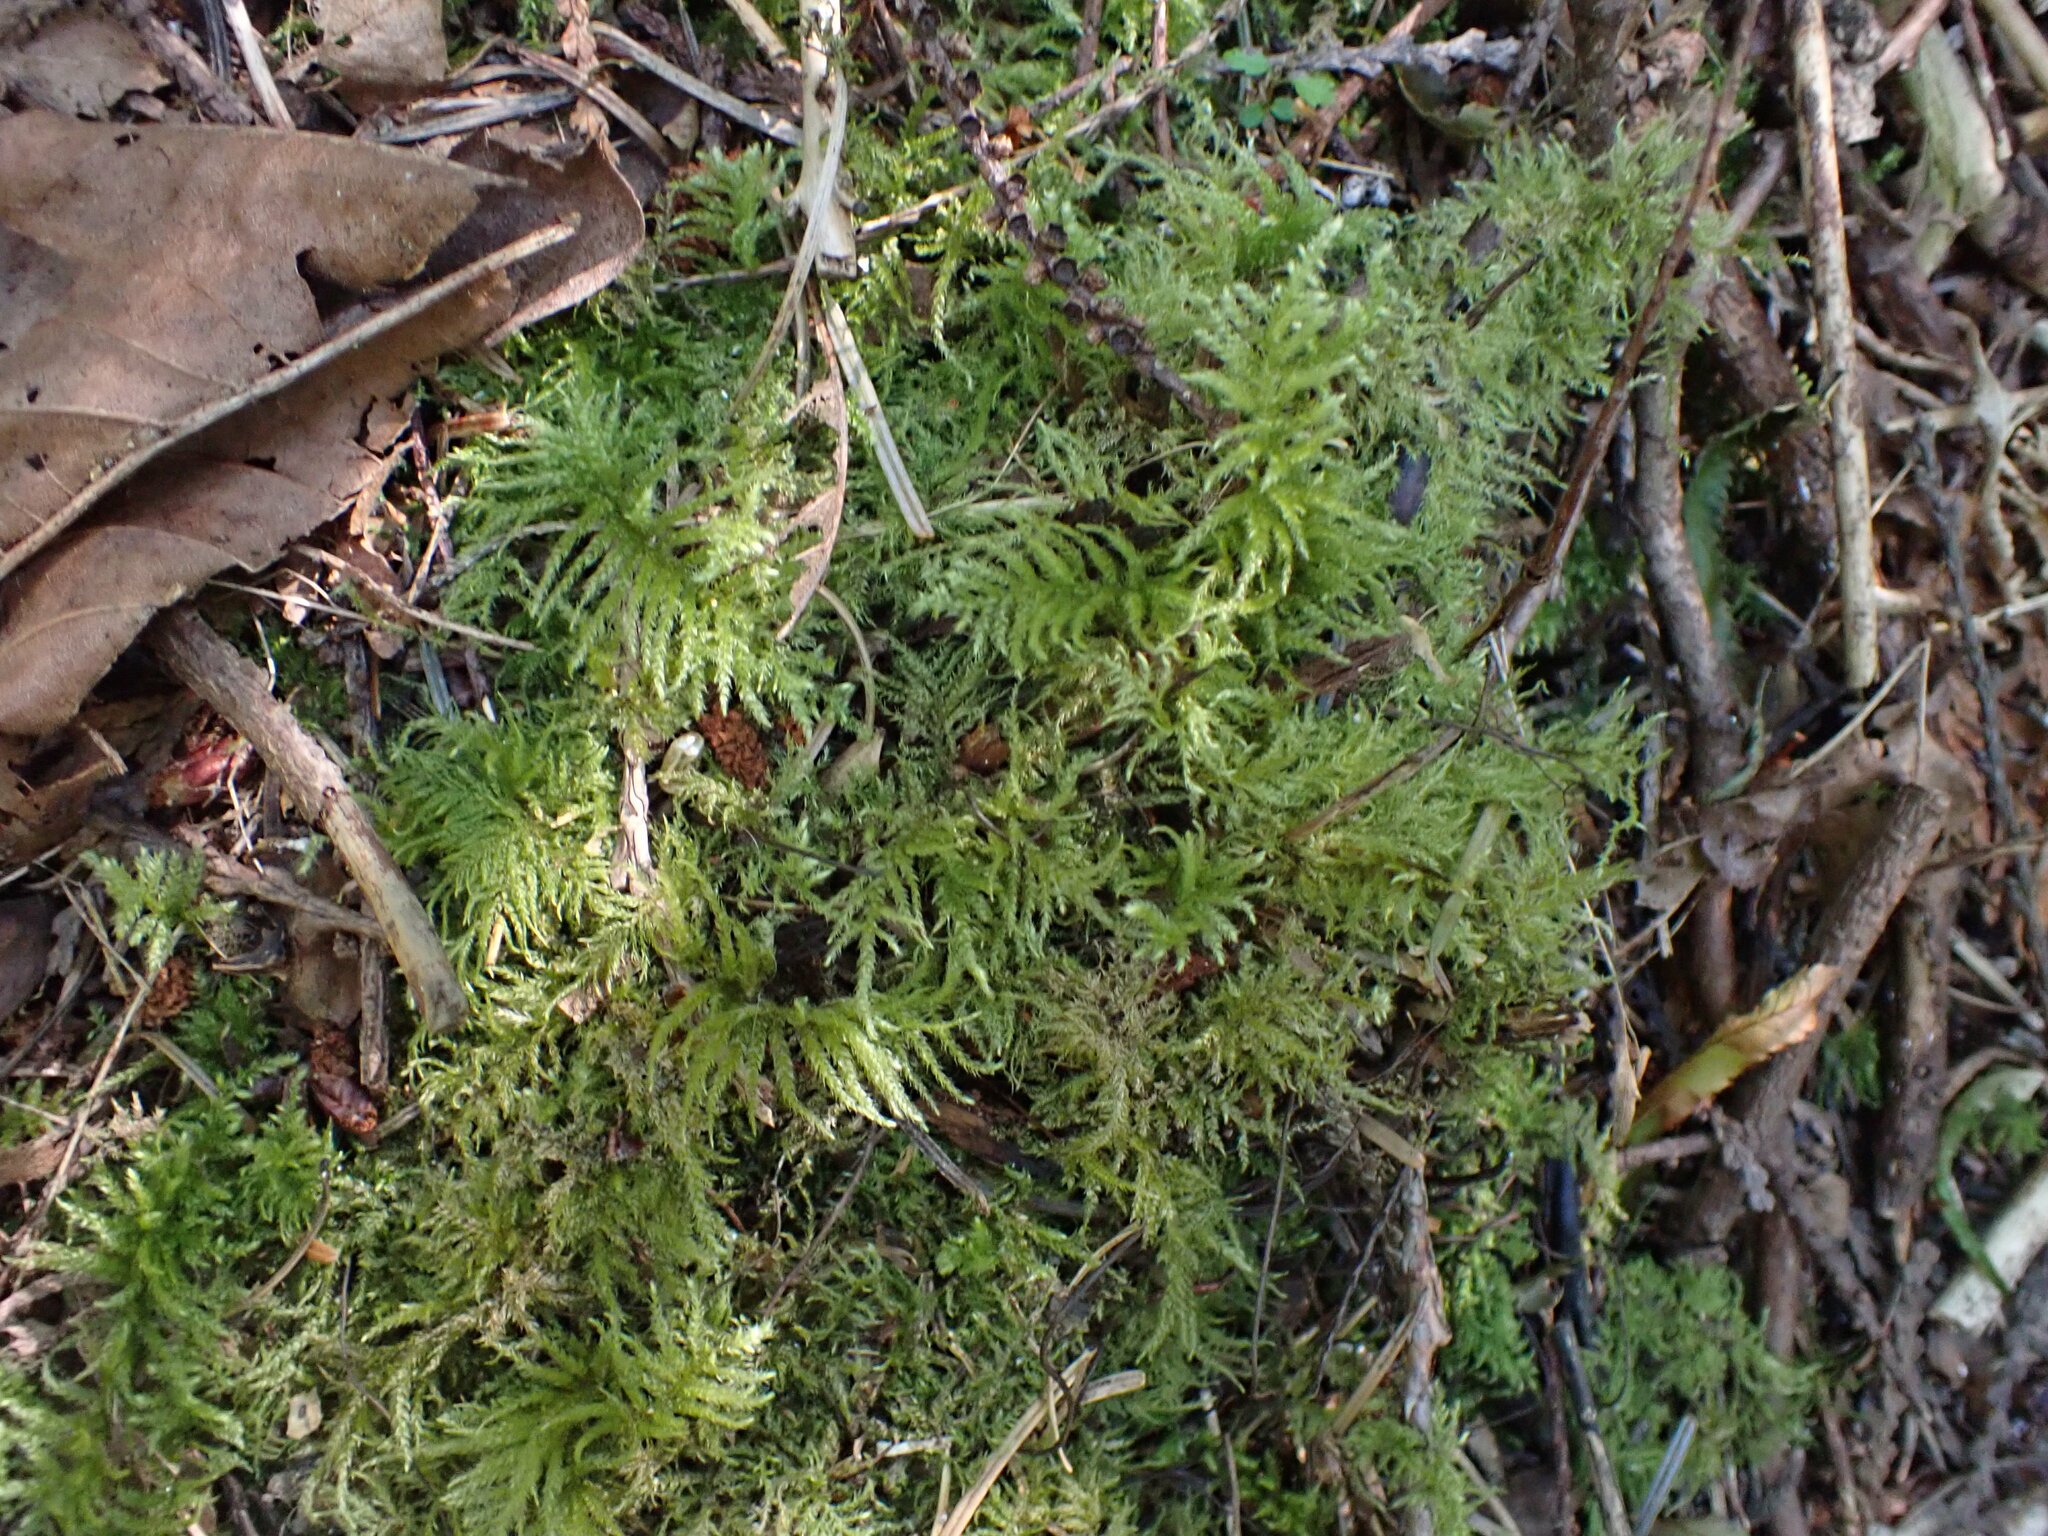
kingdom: Plantae
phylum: Bryophyta
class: Bryopsida
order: Hypnales
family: Brachytheciaceae
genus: Kindbergia
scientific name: Kindbergia oregana
